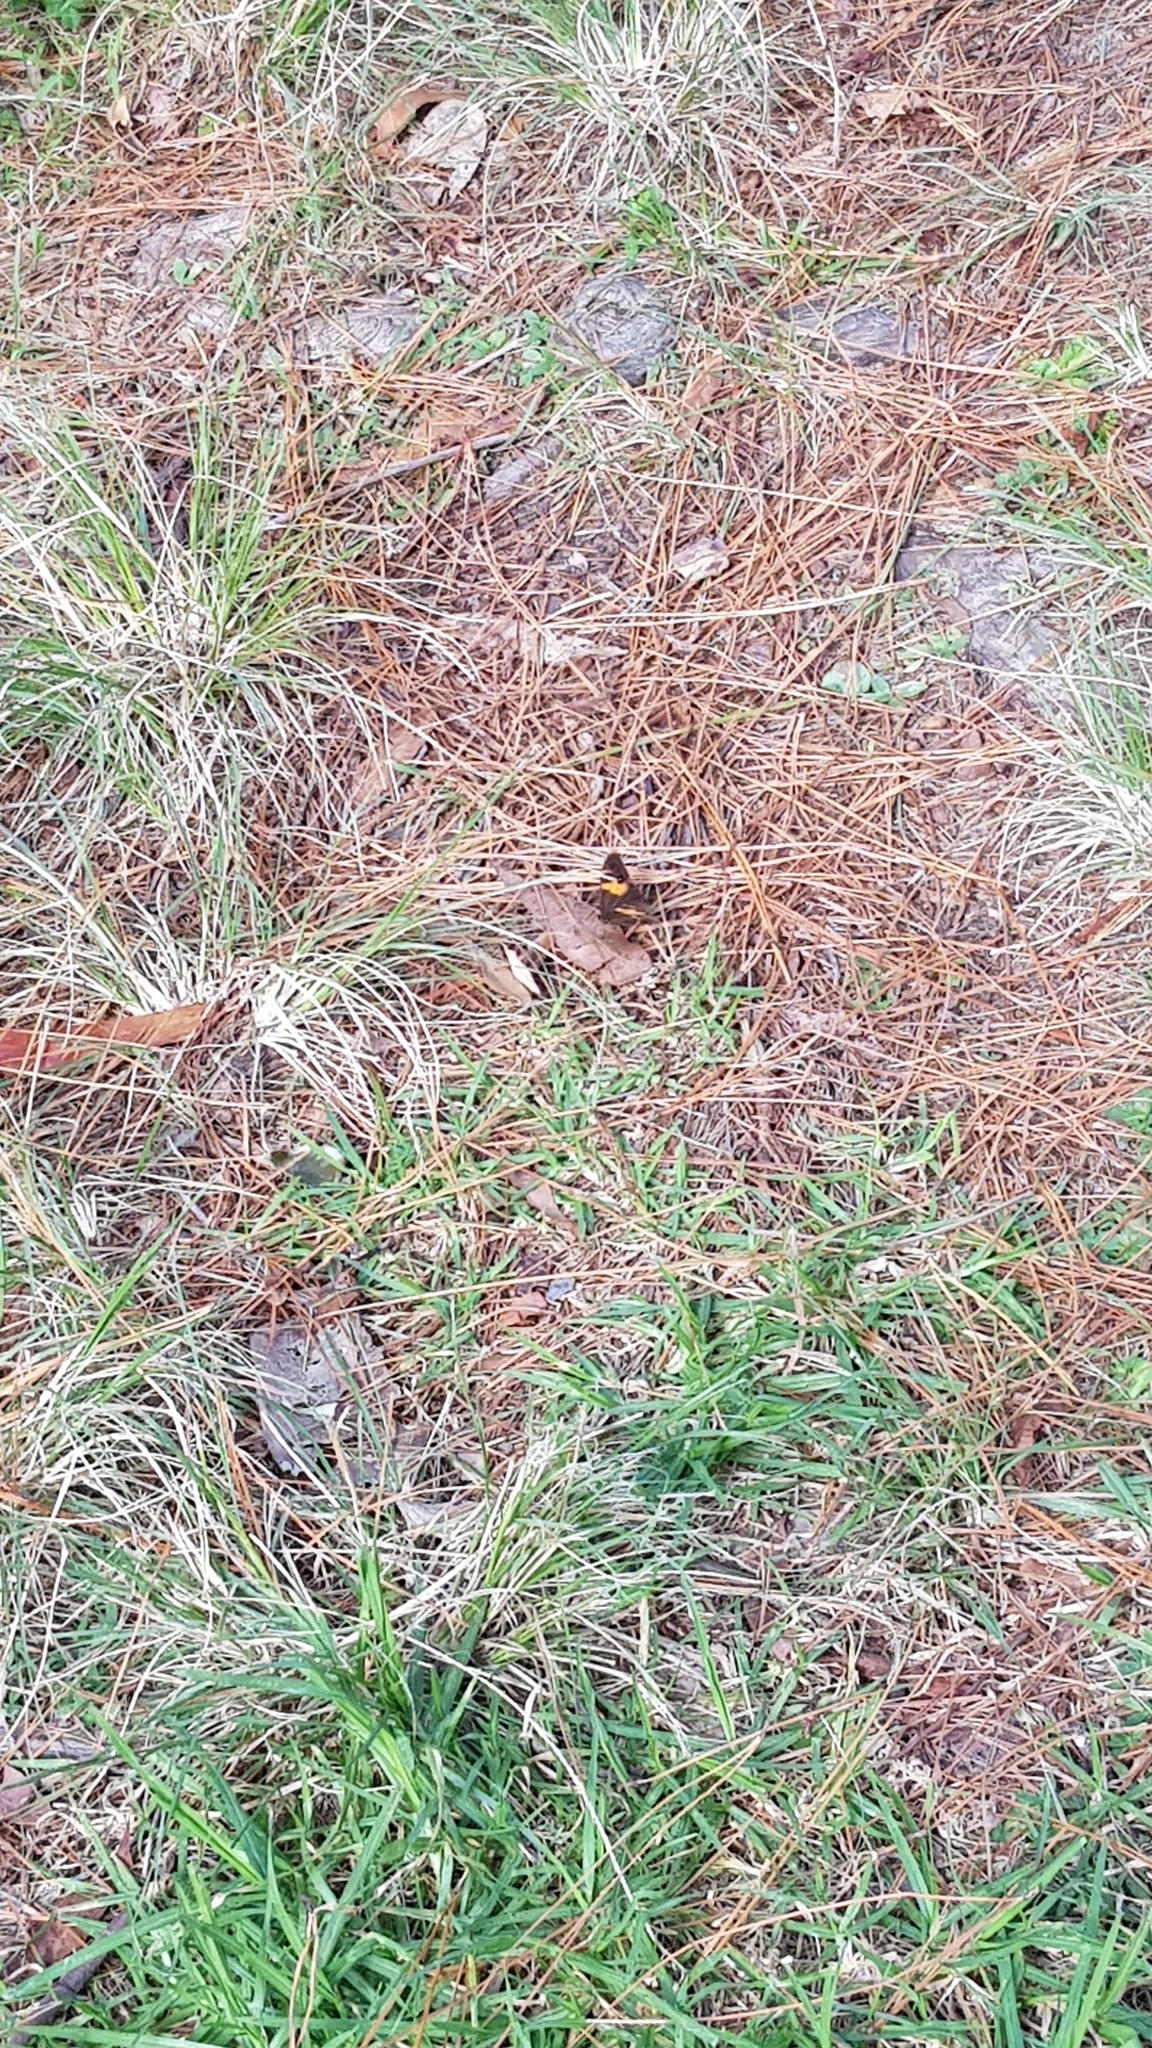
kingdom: Animalia
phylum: Arthropoda
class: Insecta
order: Lepidoptera
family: Nymphalidae
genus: Tisiphone
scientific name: Tisiphone abeona
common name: Swordgrass brown
